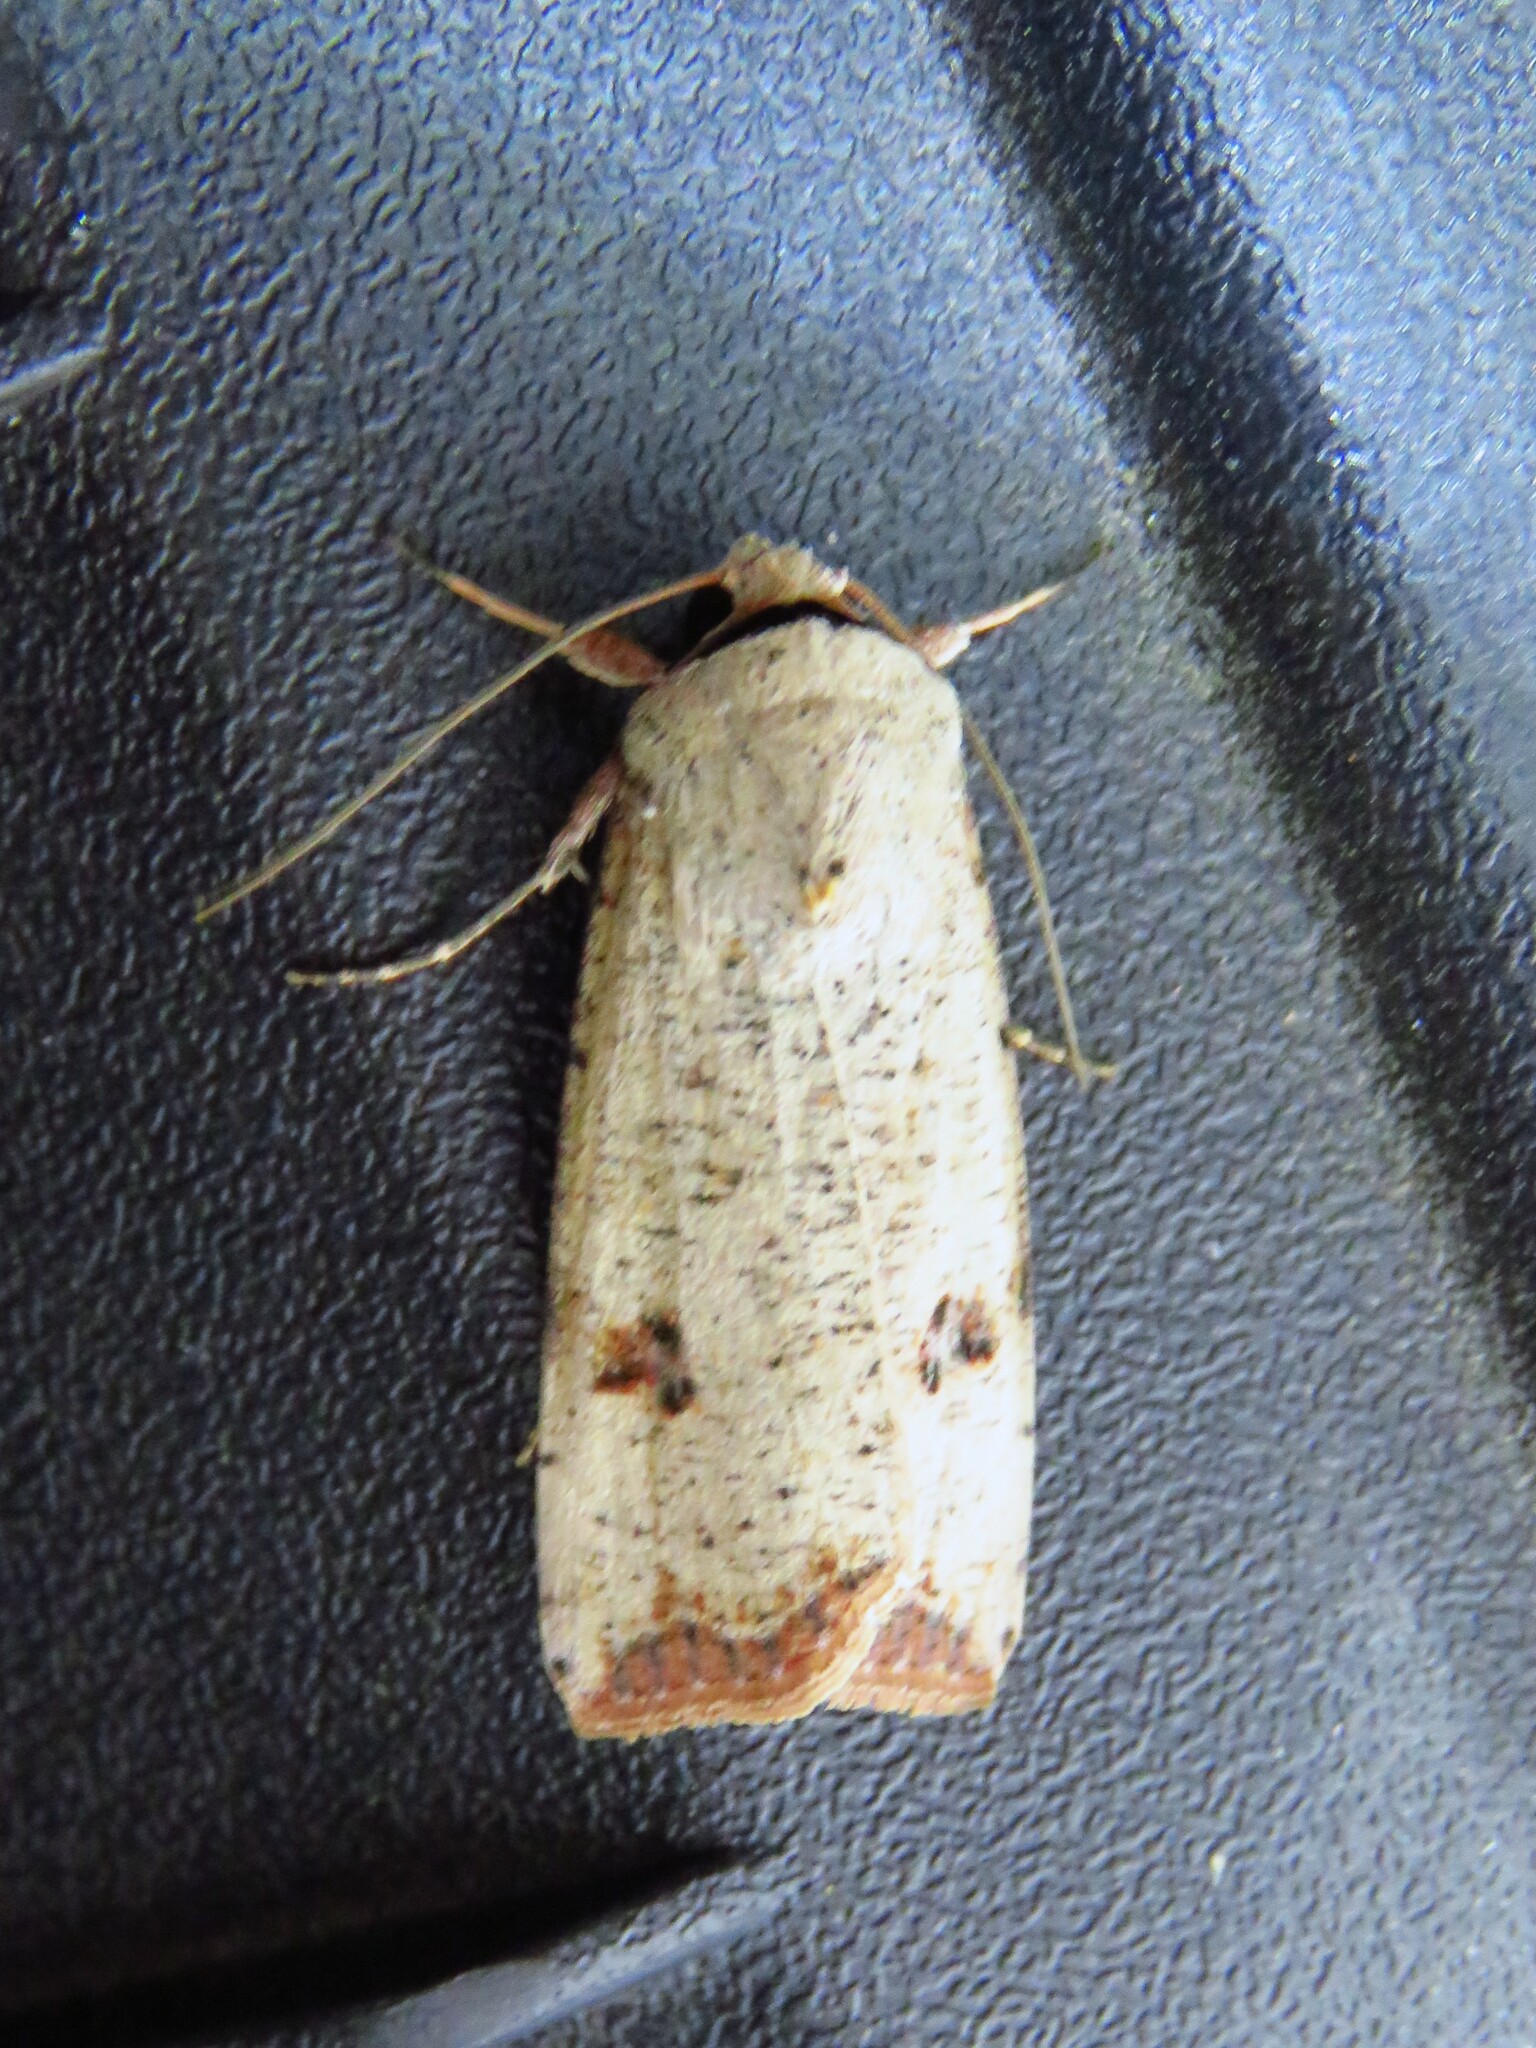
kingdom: Animalia
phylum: Arthropoda
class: Insecta
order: Lepidoptera
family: Noctuidae
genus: Anicla
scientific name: Anicla infecta
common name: Green cutworm
